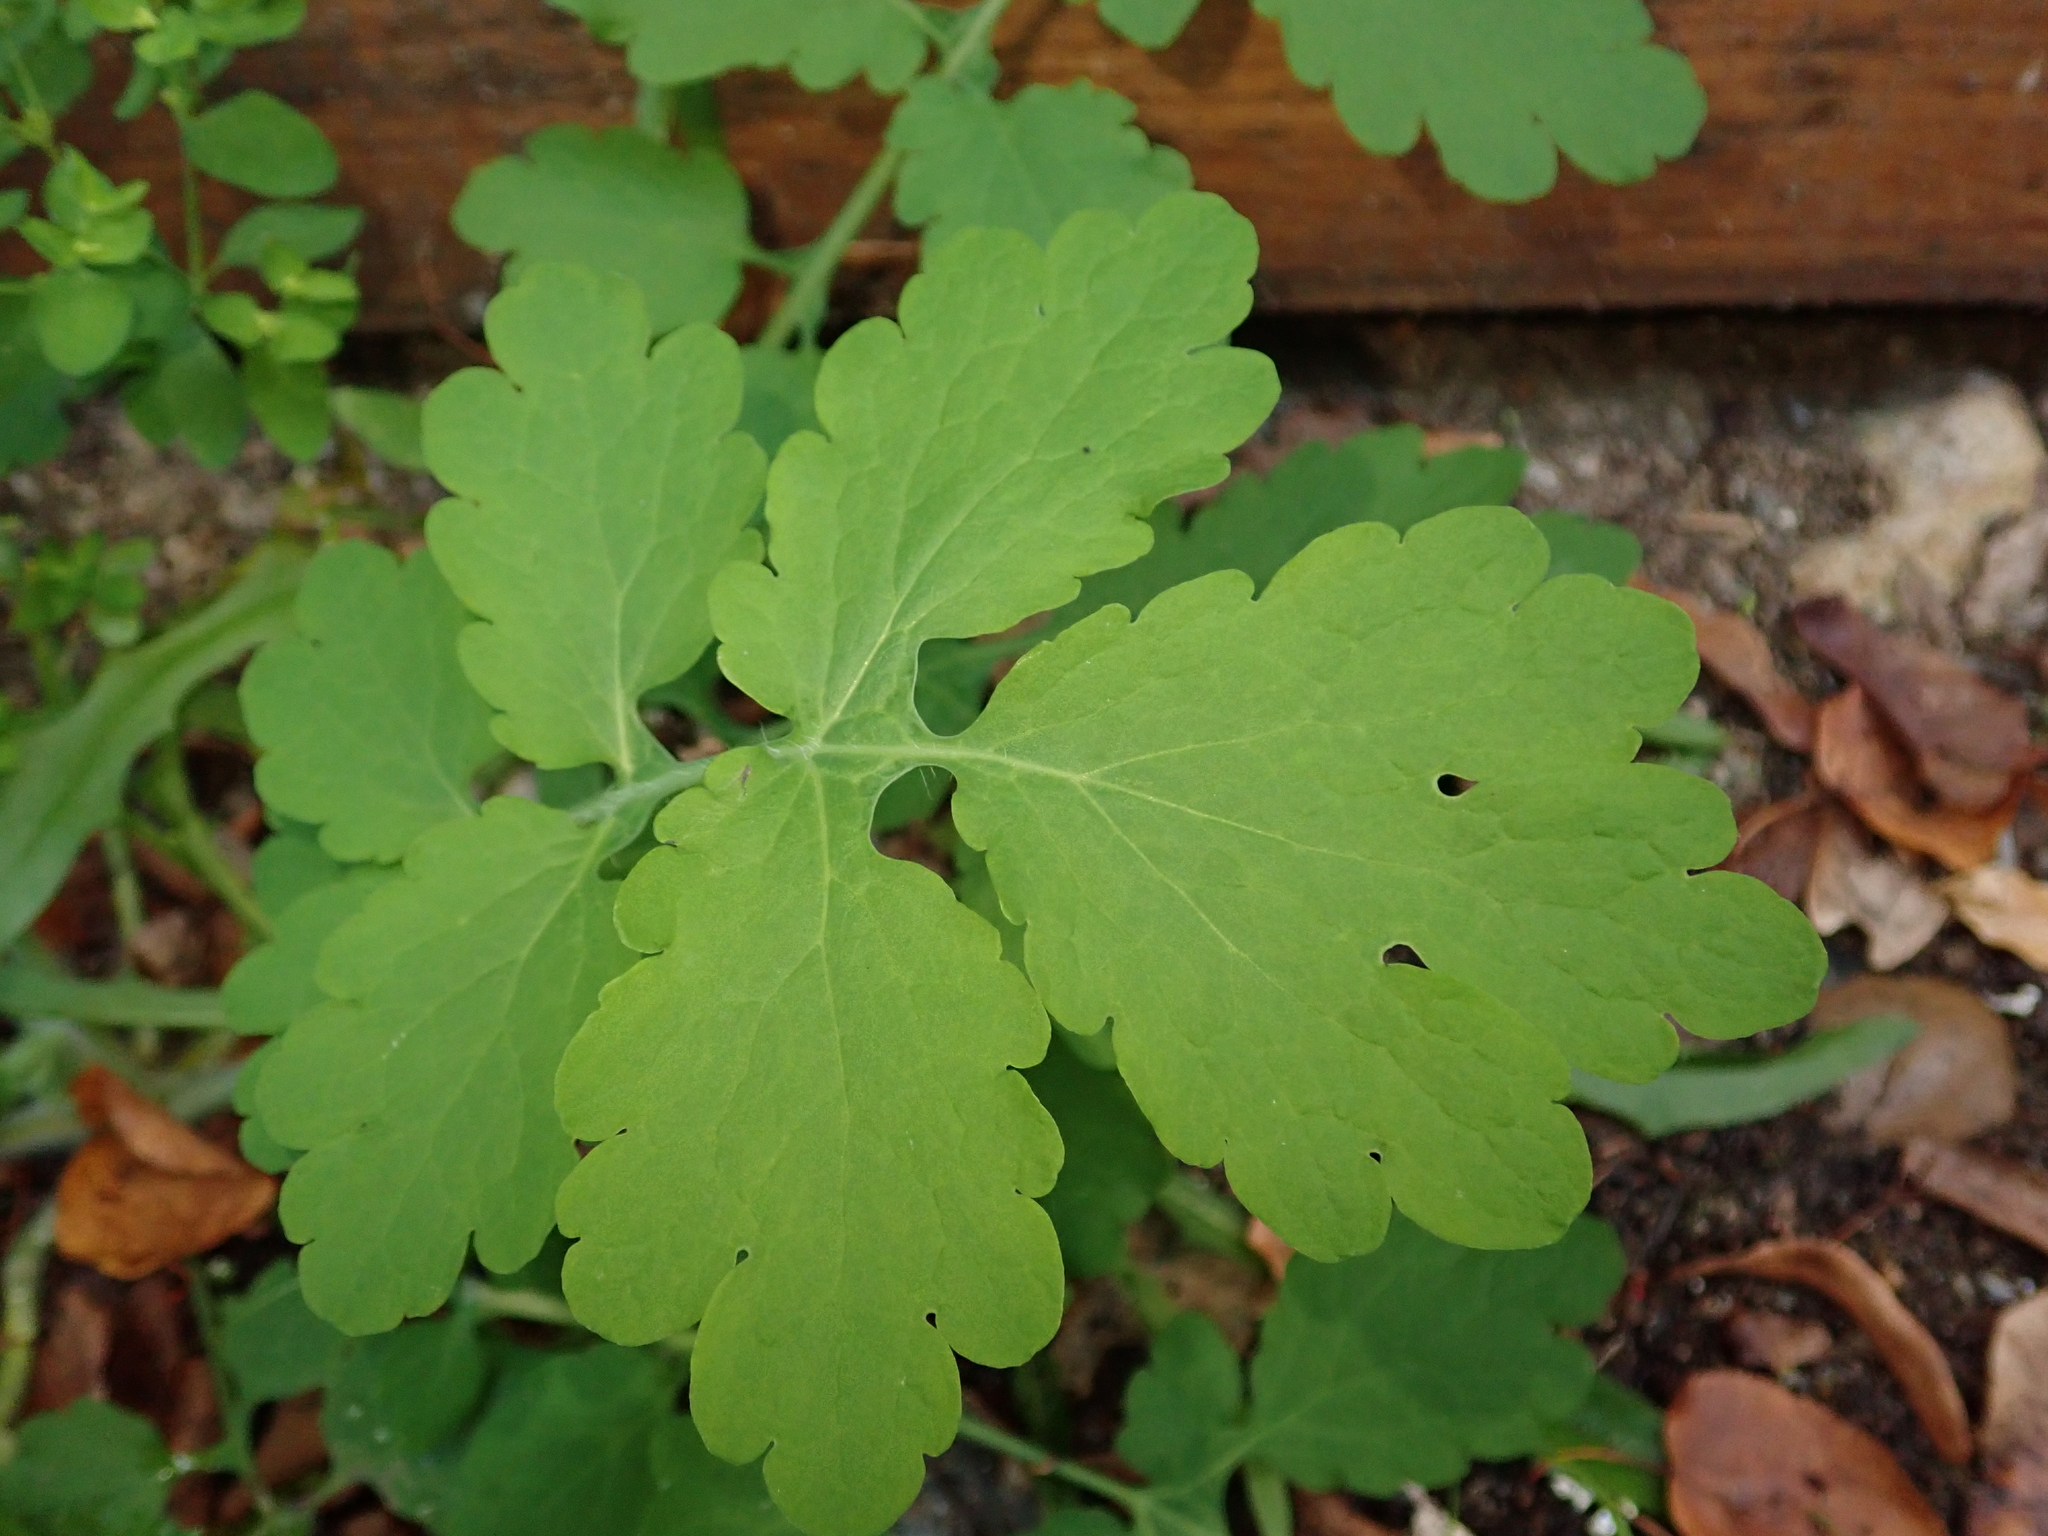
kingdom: Plantae
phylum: Tracheophyta
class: Magnoliopsida
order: Ranunculales
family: Papaveraceae
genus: Chelidonium
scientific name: Chelidonium majus
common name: Greater celandine
